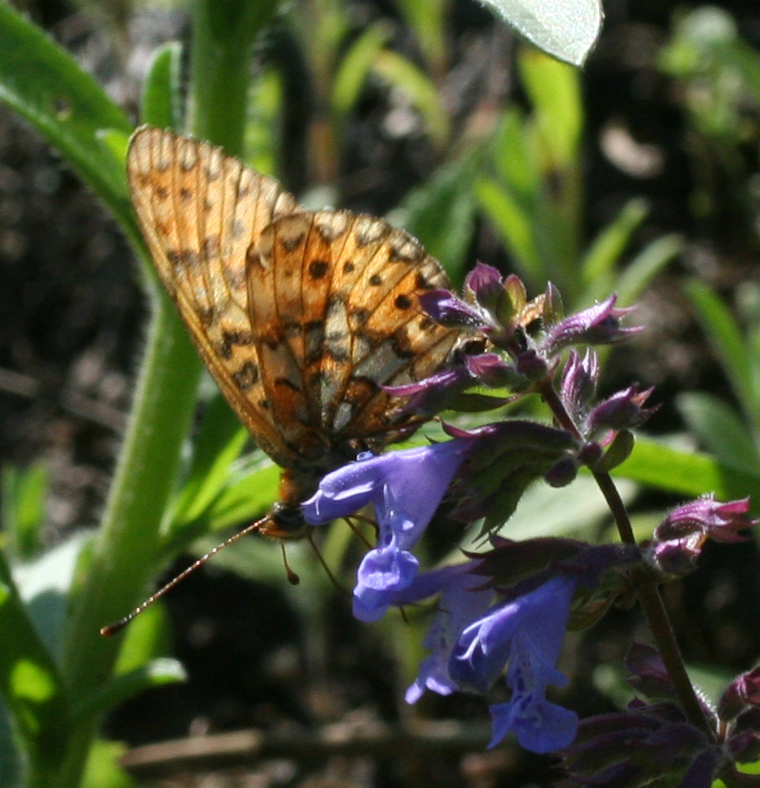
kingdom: Animalia
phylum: Arthropoda
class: Insecta
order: Lepidoptera
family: Nymphalidae
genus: Clossiana
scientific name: Clossiana euphrosyne
